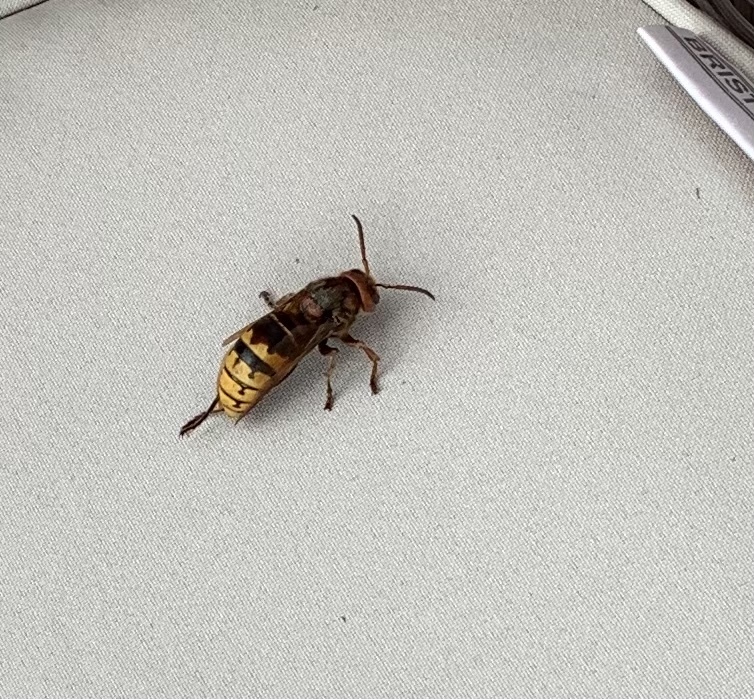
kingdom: Animalia
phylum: Arthropoda
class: Insecta
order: Hymenoptera
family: Vespidae
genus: Vespa
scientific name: Vespa crabro
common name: Hornet
